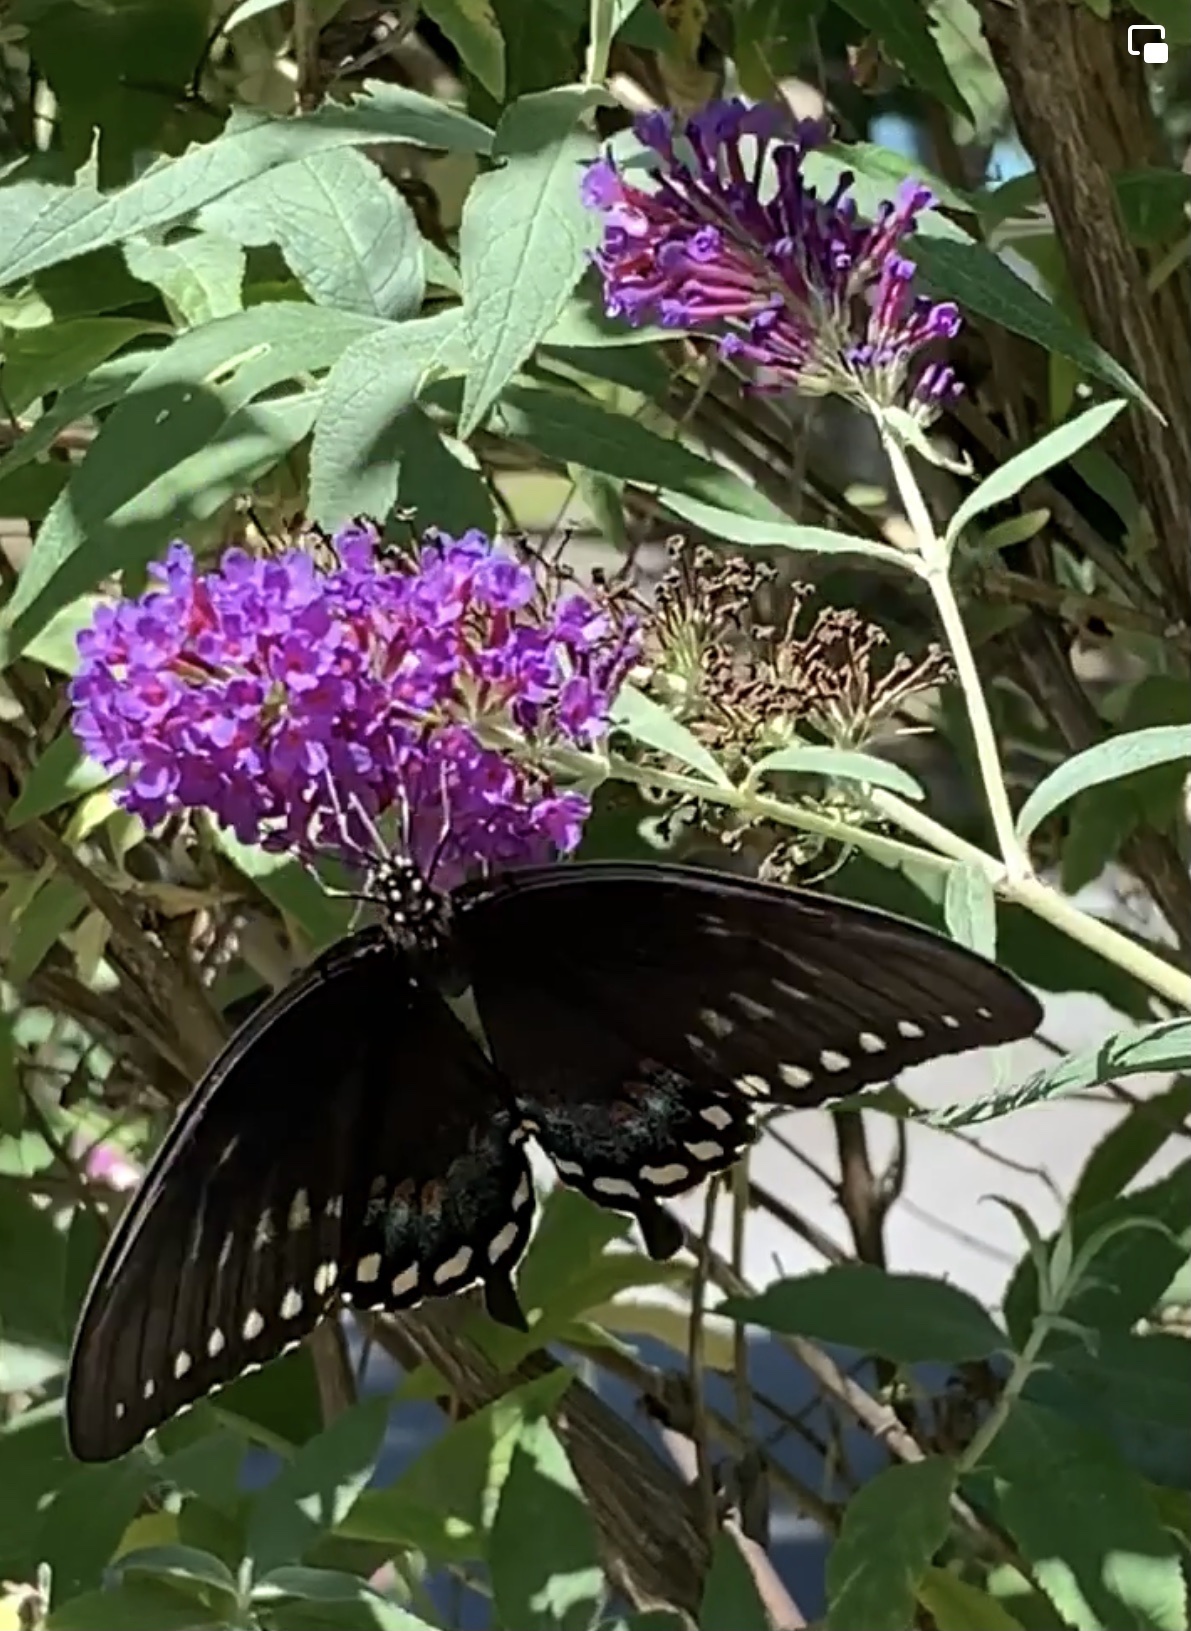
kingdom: Animalia
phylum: Arthropoda
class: Insecta
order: Lepidoptera
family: Papilionidae
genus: Papilio
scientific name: Papilio troilus
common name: Spicebush swallowtail
